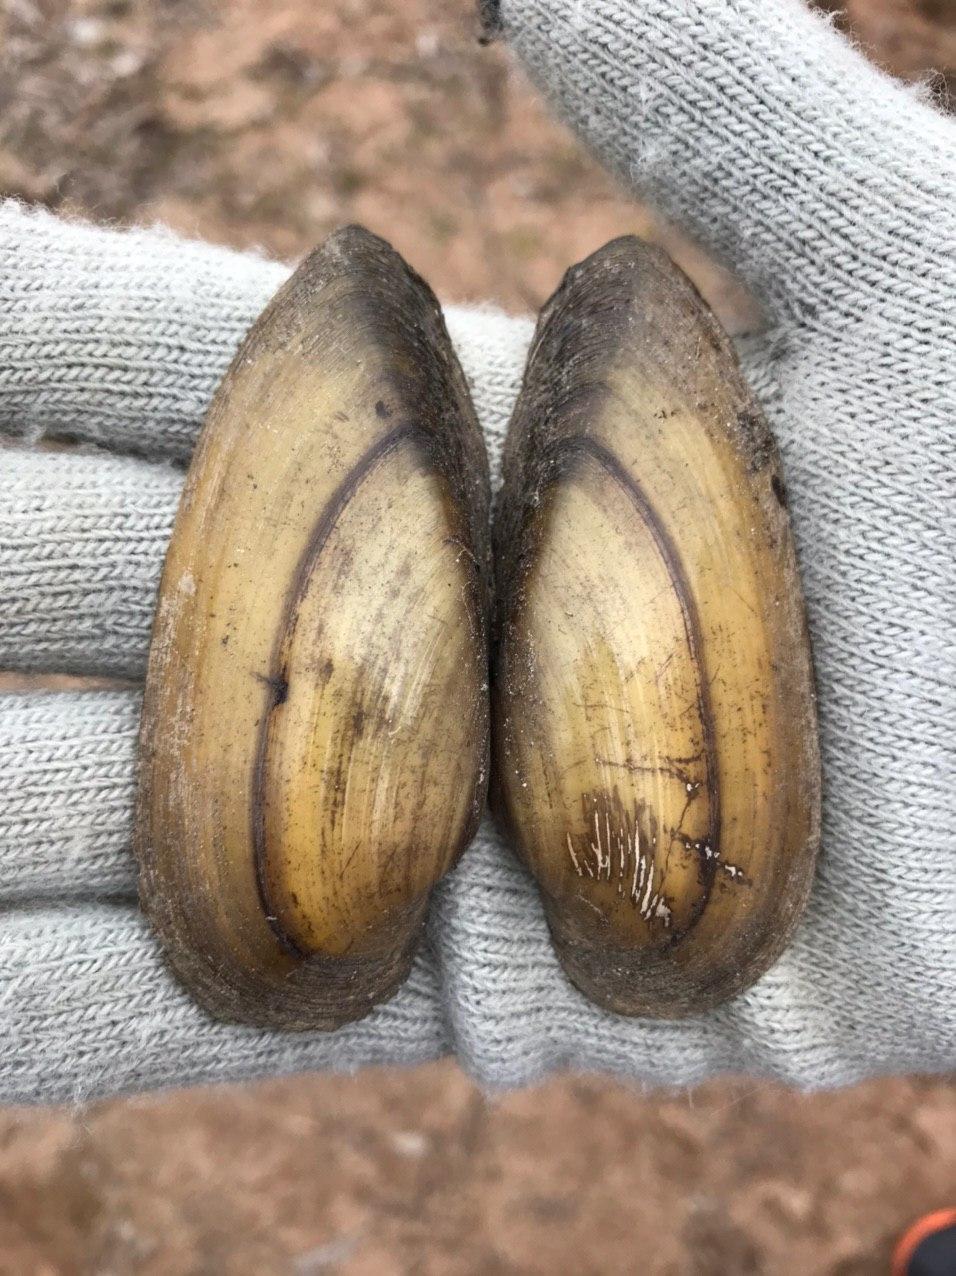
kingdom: Animalia
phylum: Mollusca
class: Bivalvia
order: Unionida
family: Unionidae
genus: Unio
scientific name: Unio pictorum
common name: Painter's mussel
